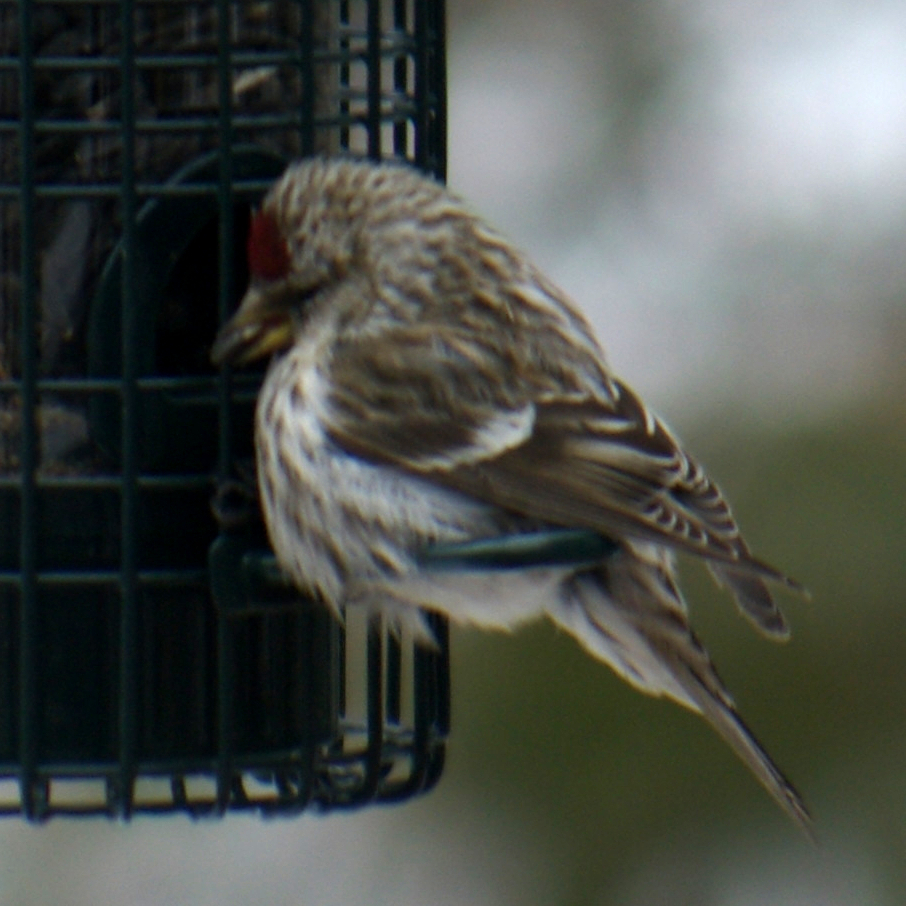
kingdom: Animalia
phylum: Chordata
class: Aves
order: Passeriformes
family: Fringillidae
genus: Acanthis
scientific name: Acanthis flammea
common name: Common redpoll
